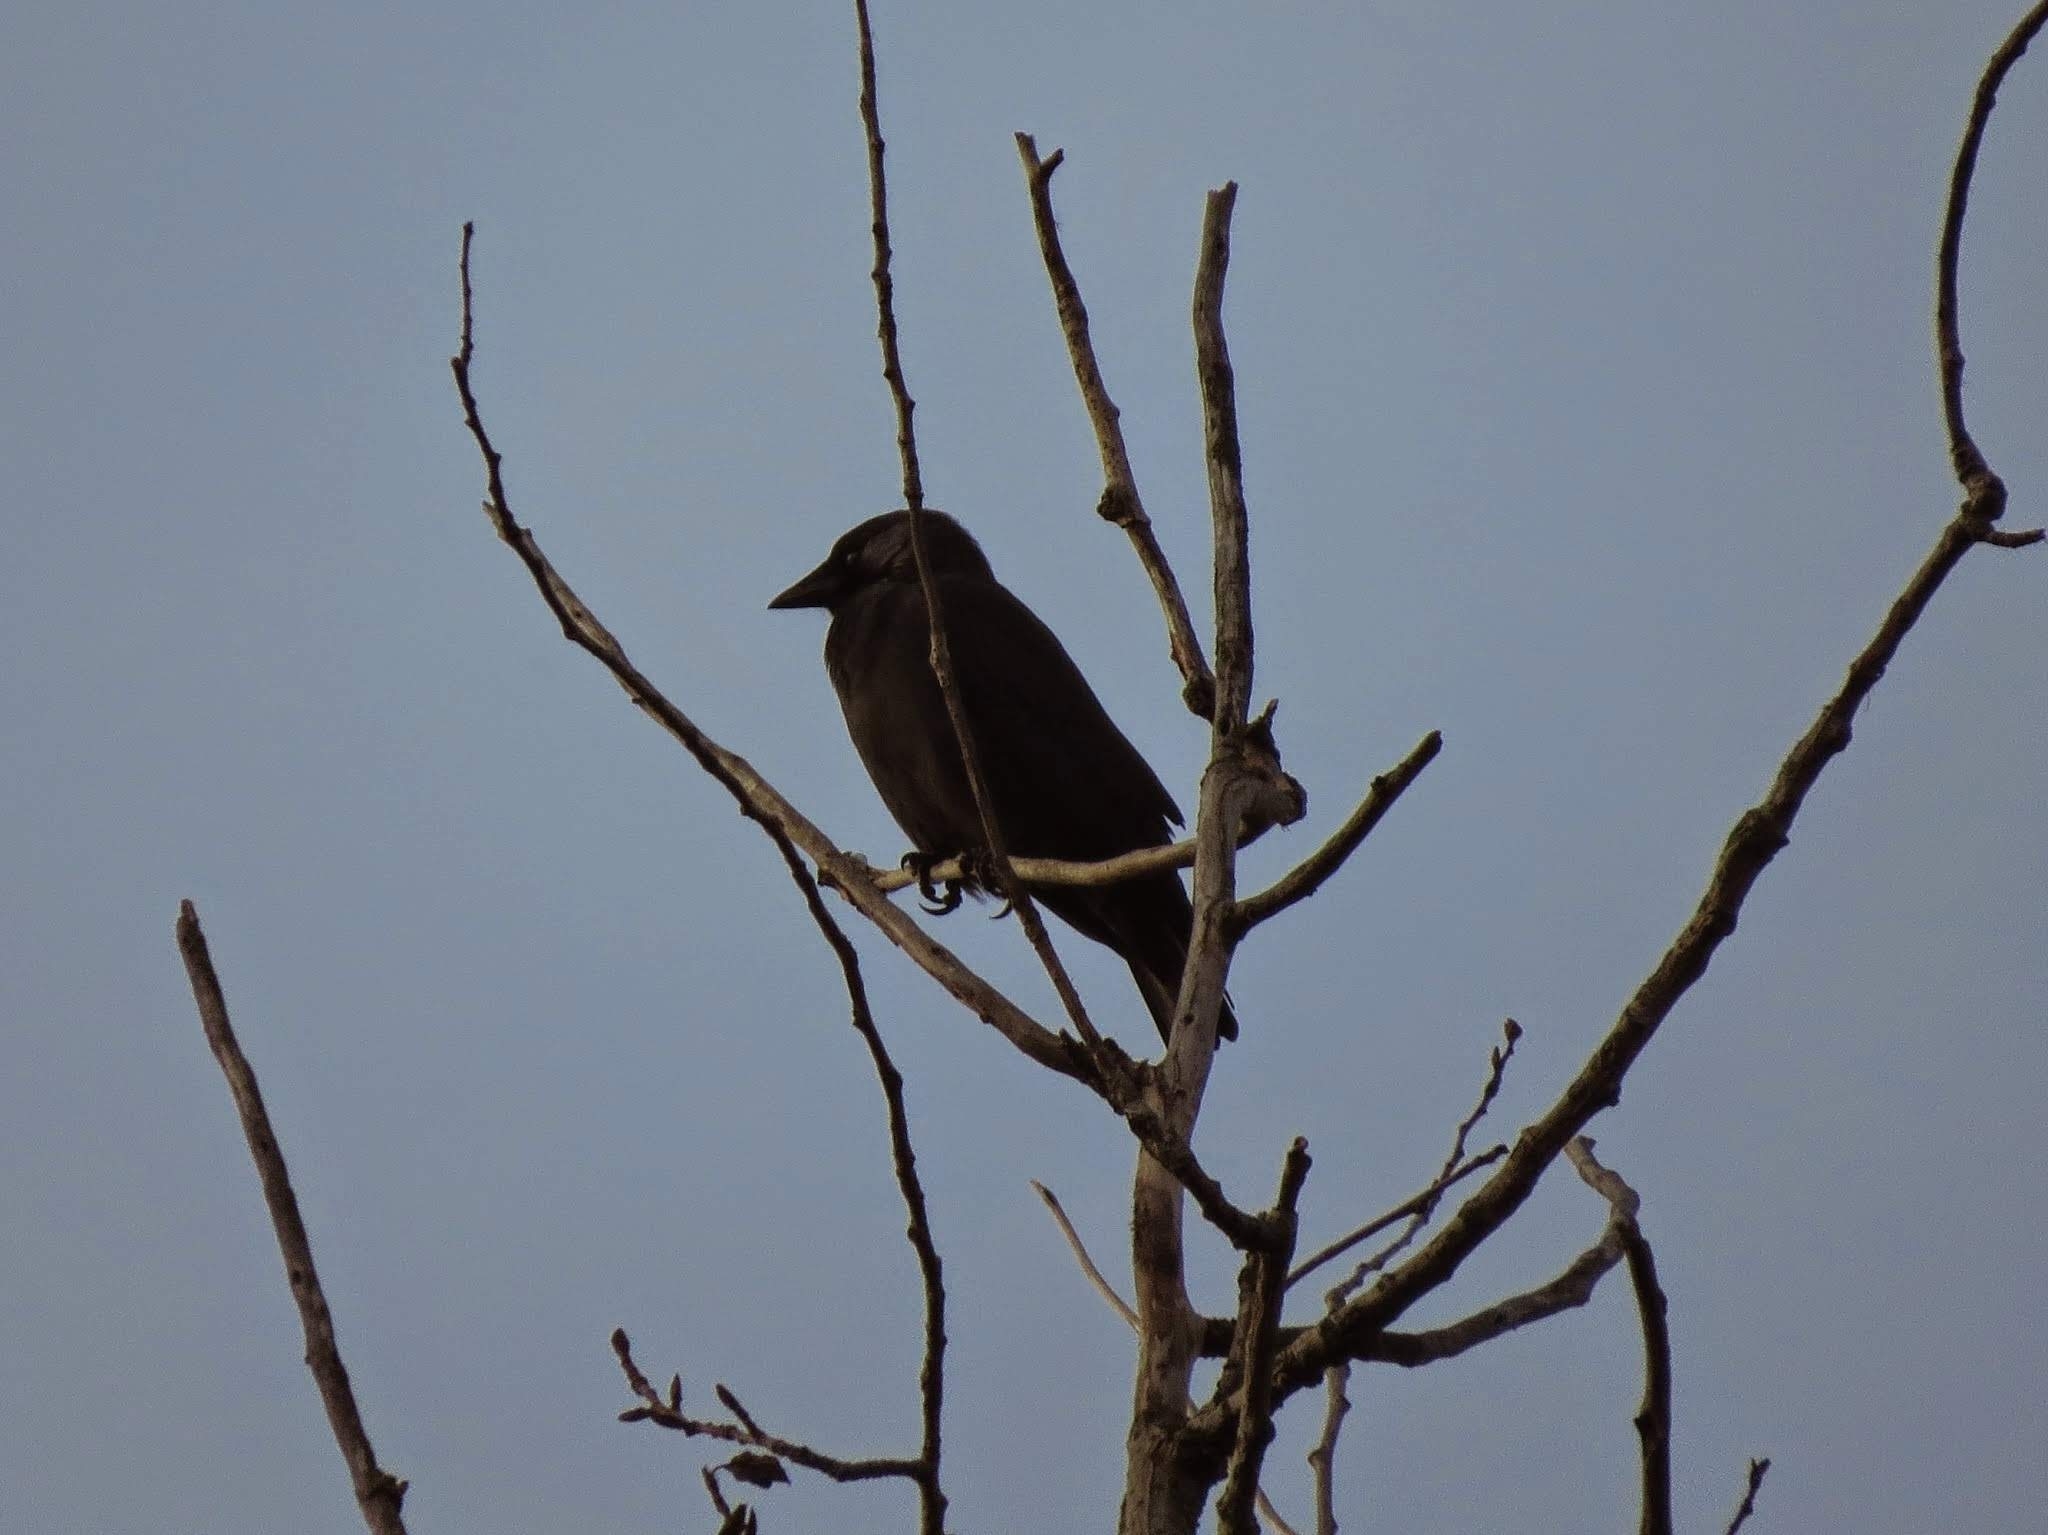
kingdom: Animalia
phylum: Chordata
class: Aves
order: Passeriformes
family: Corvidae
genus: Coloeus
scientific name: Coloeus monedula
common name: Western jackdaw
